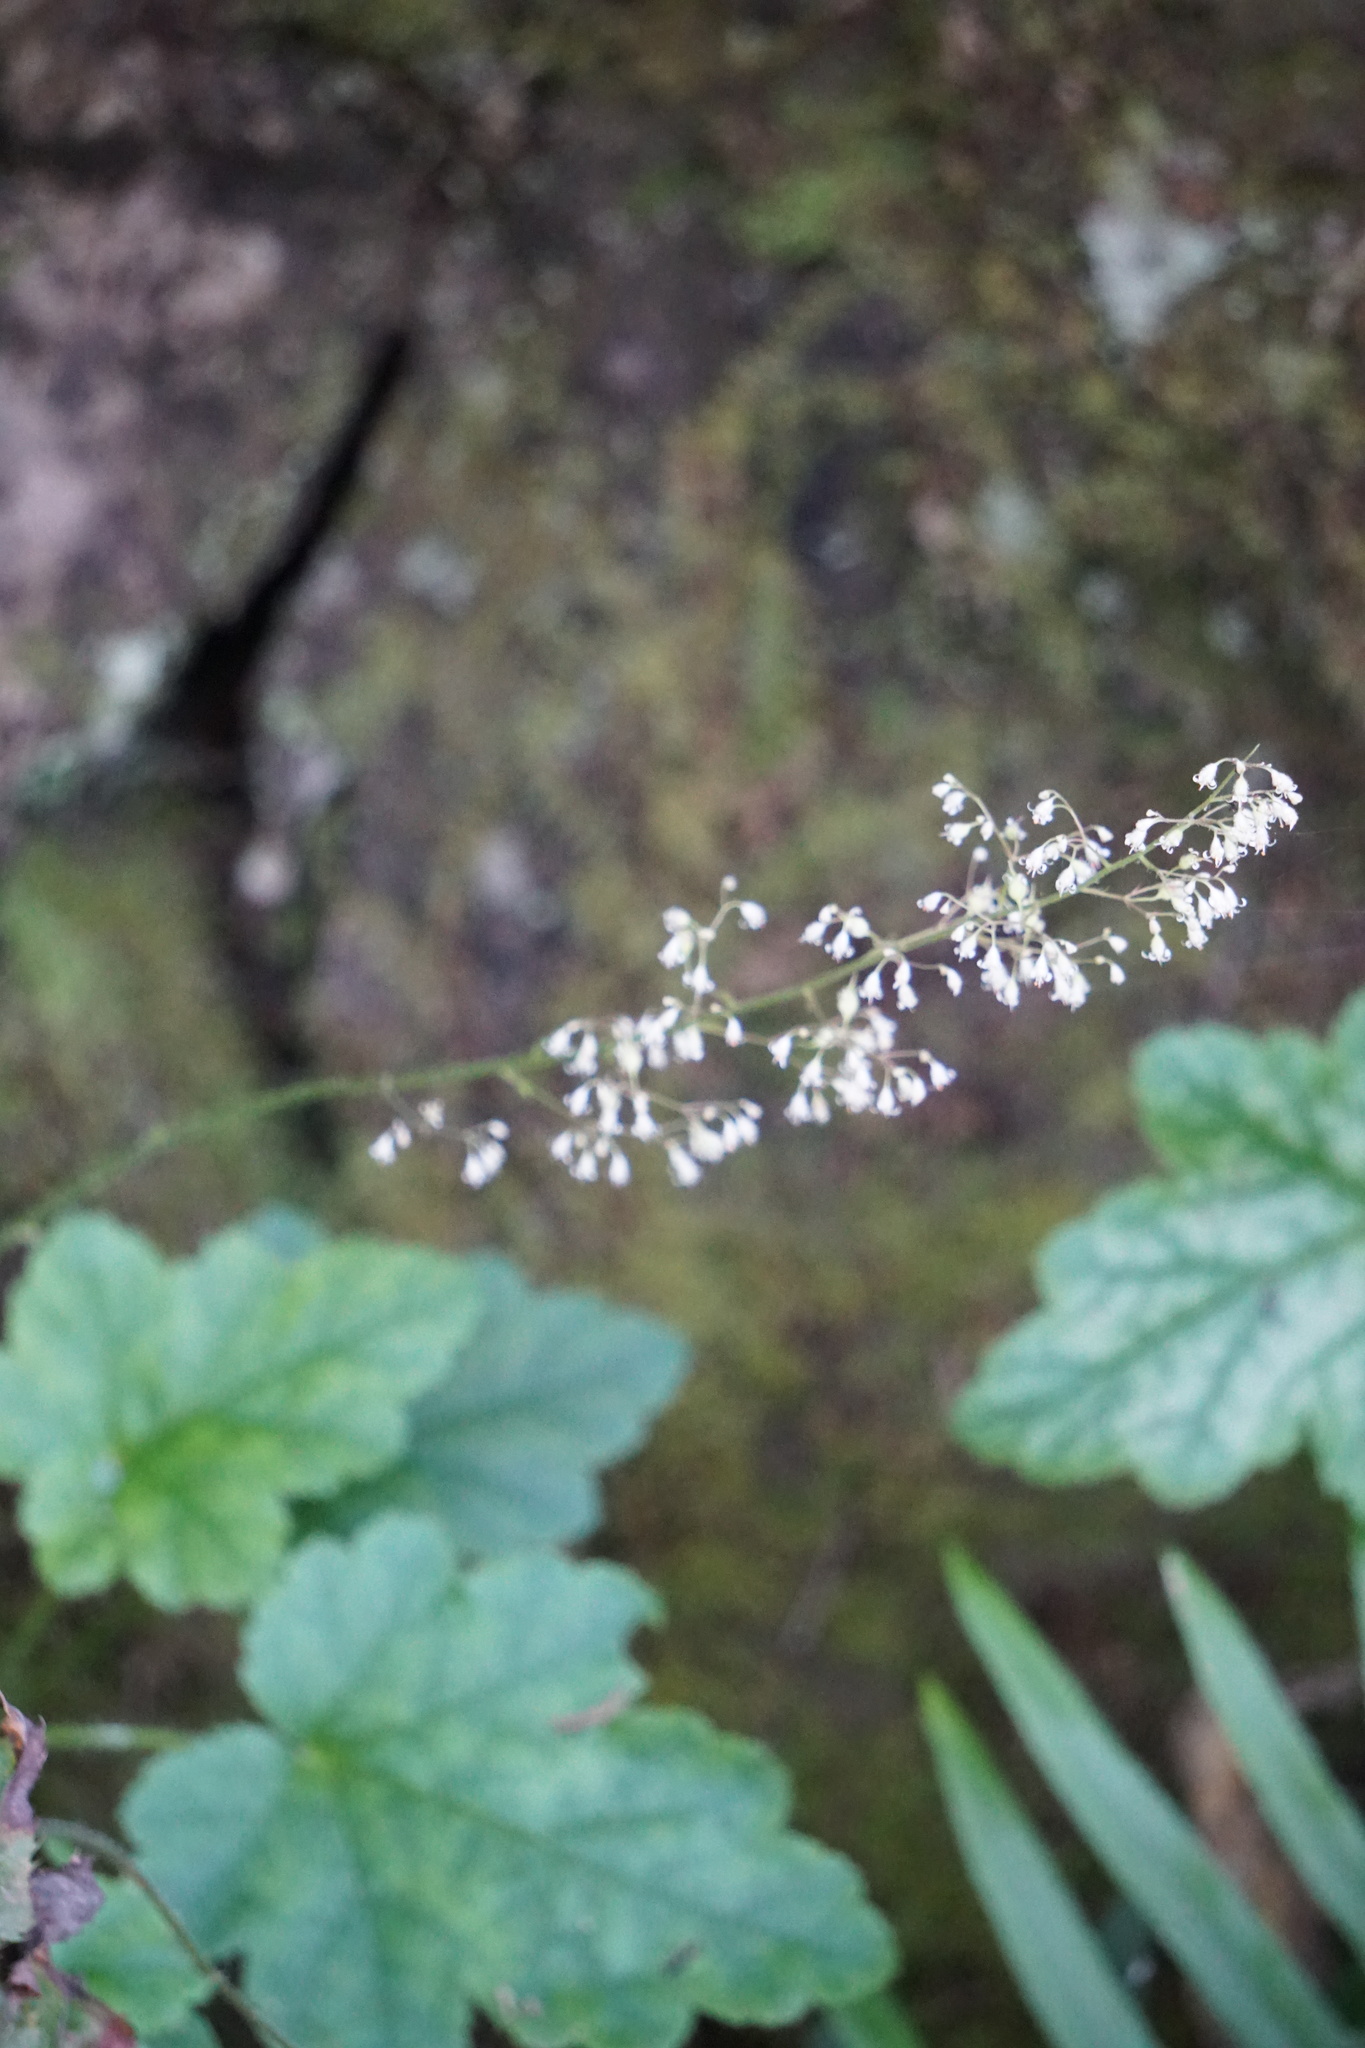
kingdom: Plantae
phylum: Tracheophyta
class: Magnoliopsida
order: Saxifragales
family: Saxifragaceae
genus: Tiarella
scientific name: Tiarella trifoliata
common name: Sugar-scoop
